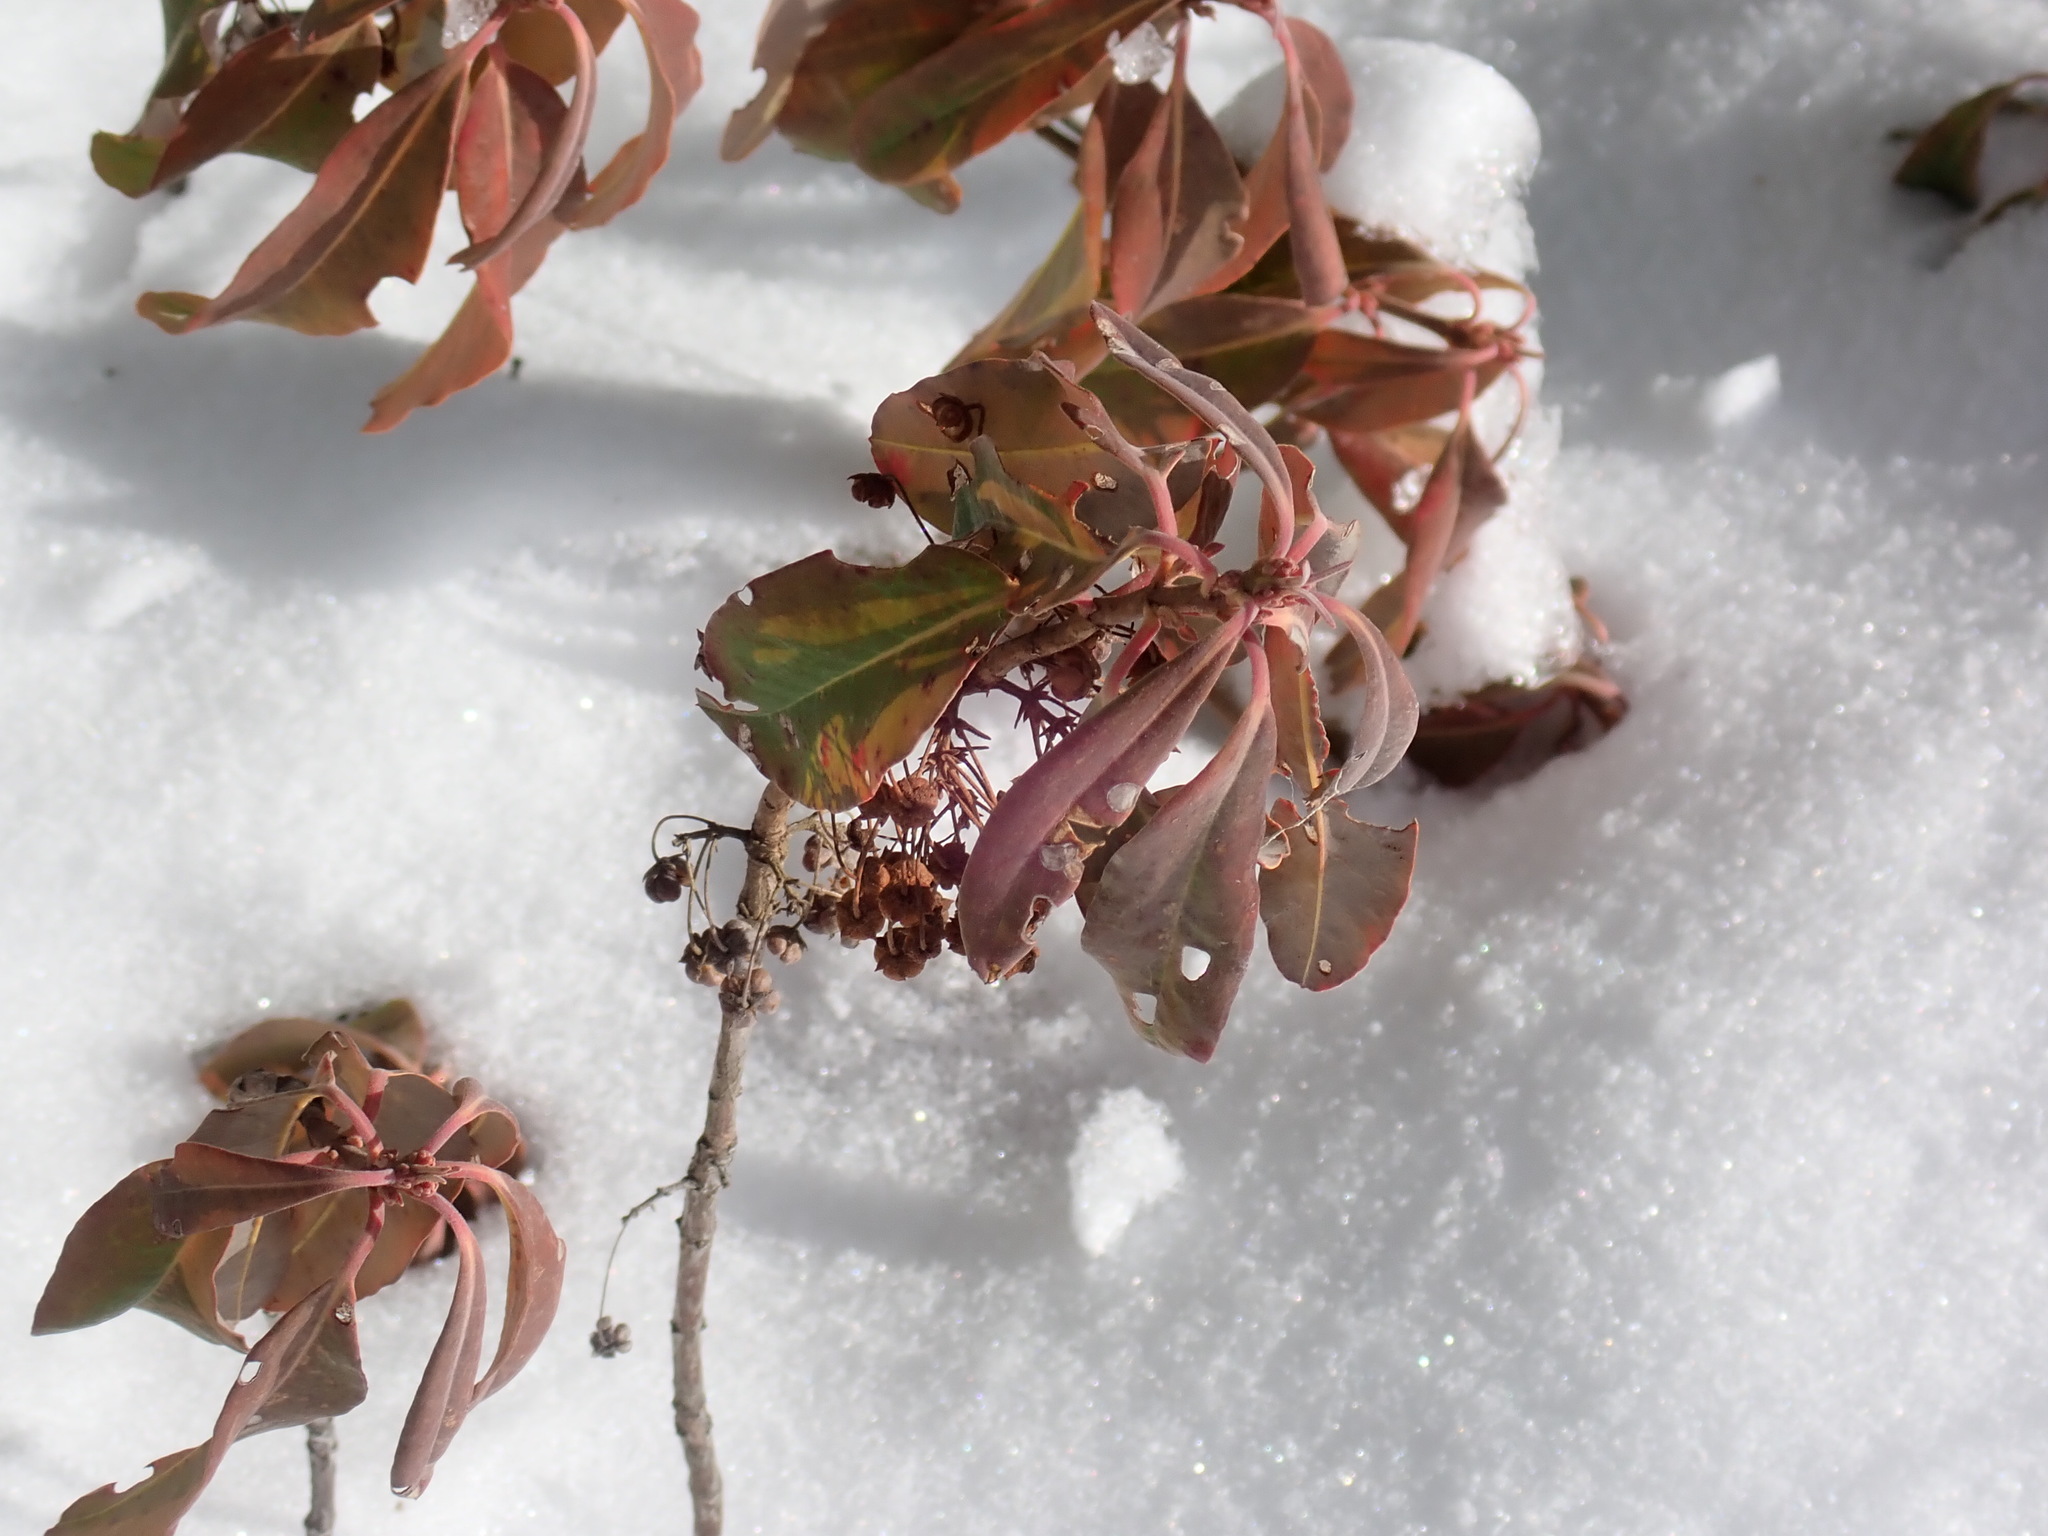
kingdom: Plantae
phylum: Tracheophyta
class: Magnoliopsida
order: Ericales
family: Ericaceae
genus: Kalmia
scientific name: Kalmia angustifolia
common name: Sheep-laurel
